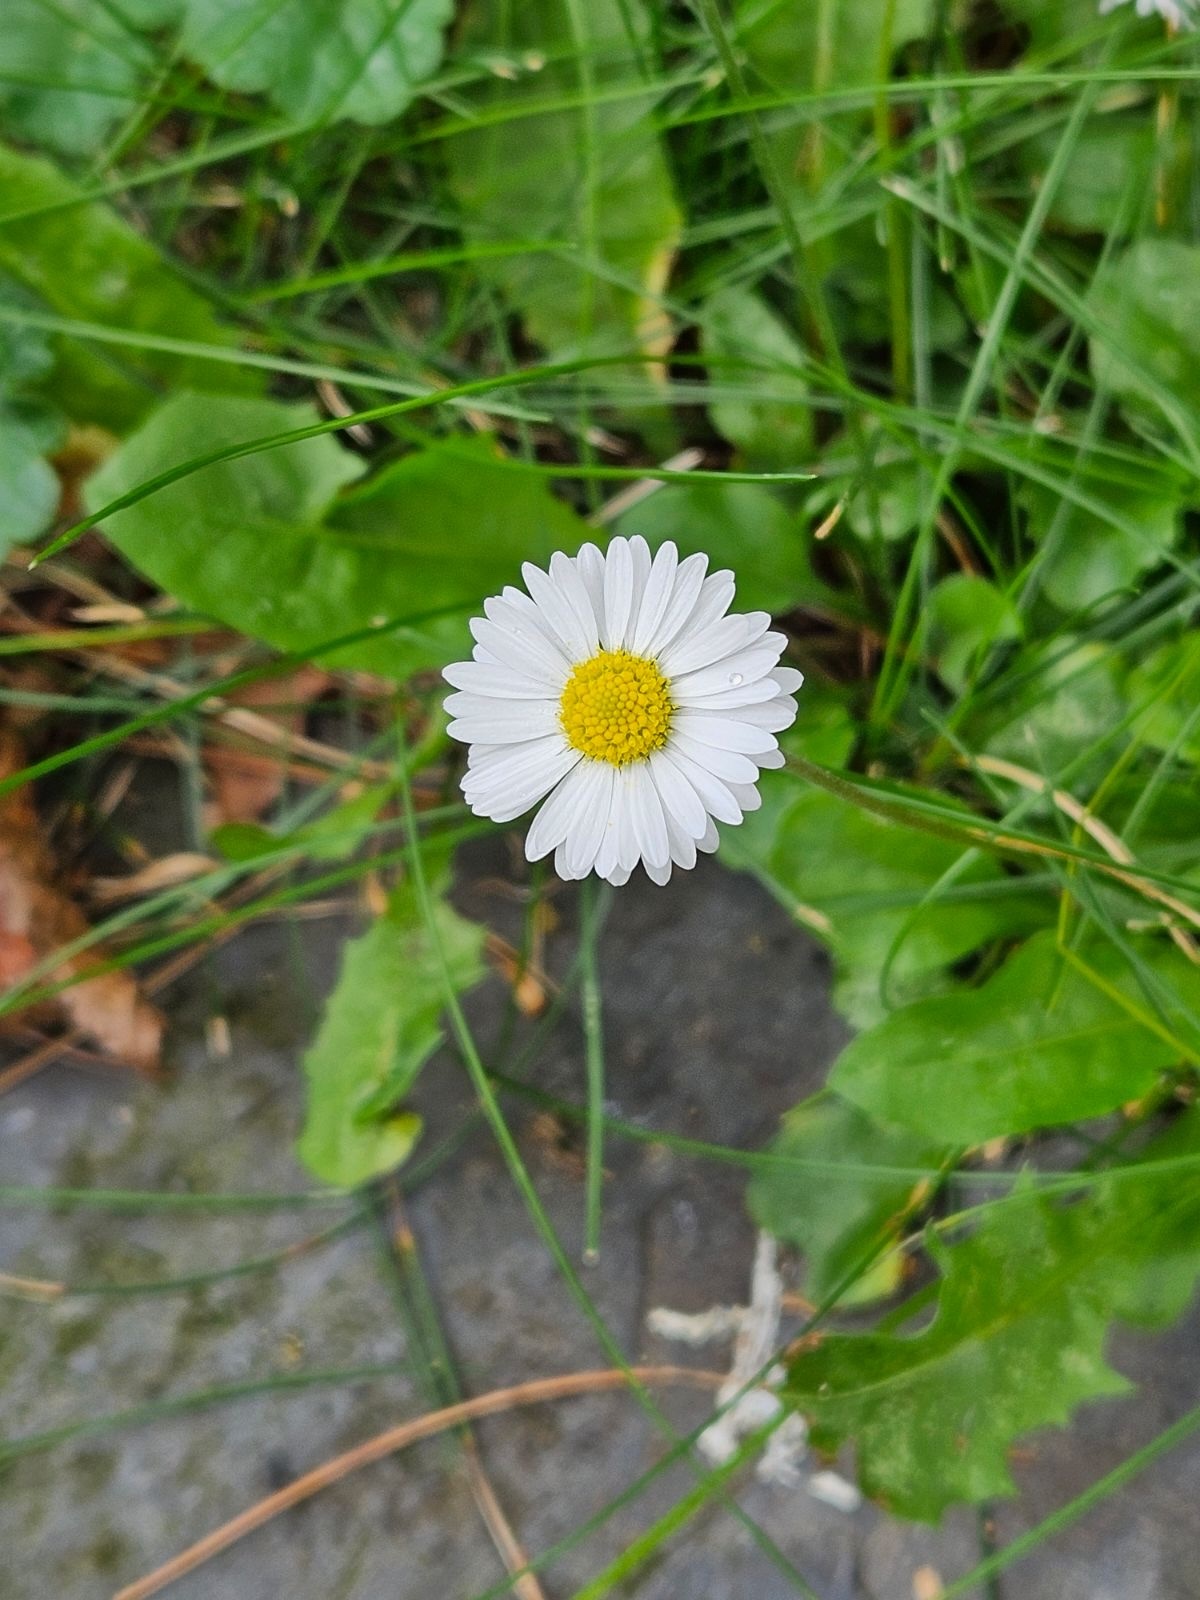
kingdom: Plantae
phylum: Tracheophyta
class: Magnoliopsida
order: Asterales
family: Asteraceae
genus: Bellis
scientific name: Bellis perennis
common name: Lawndaisy
